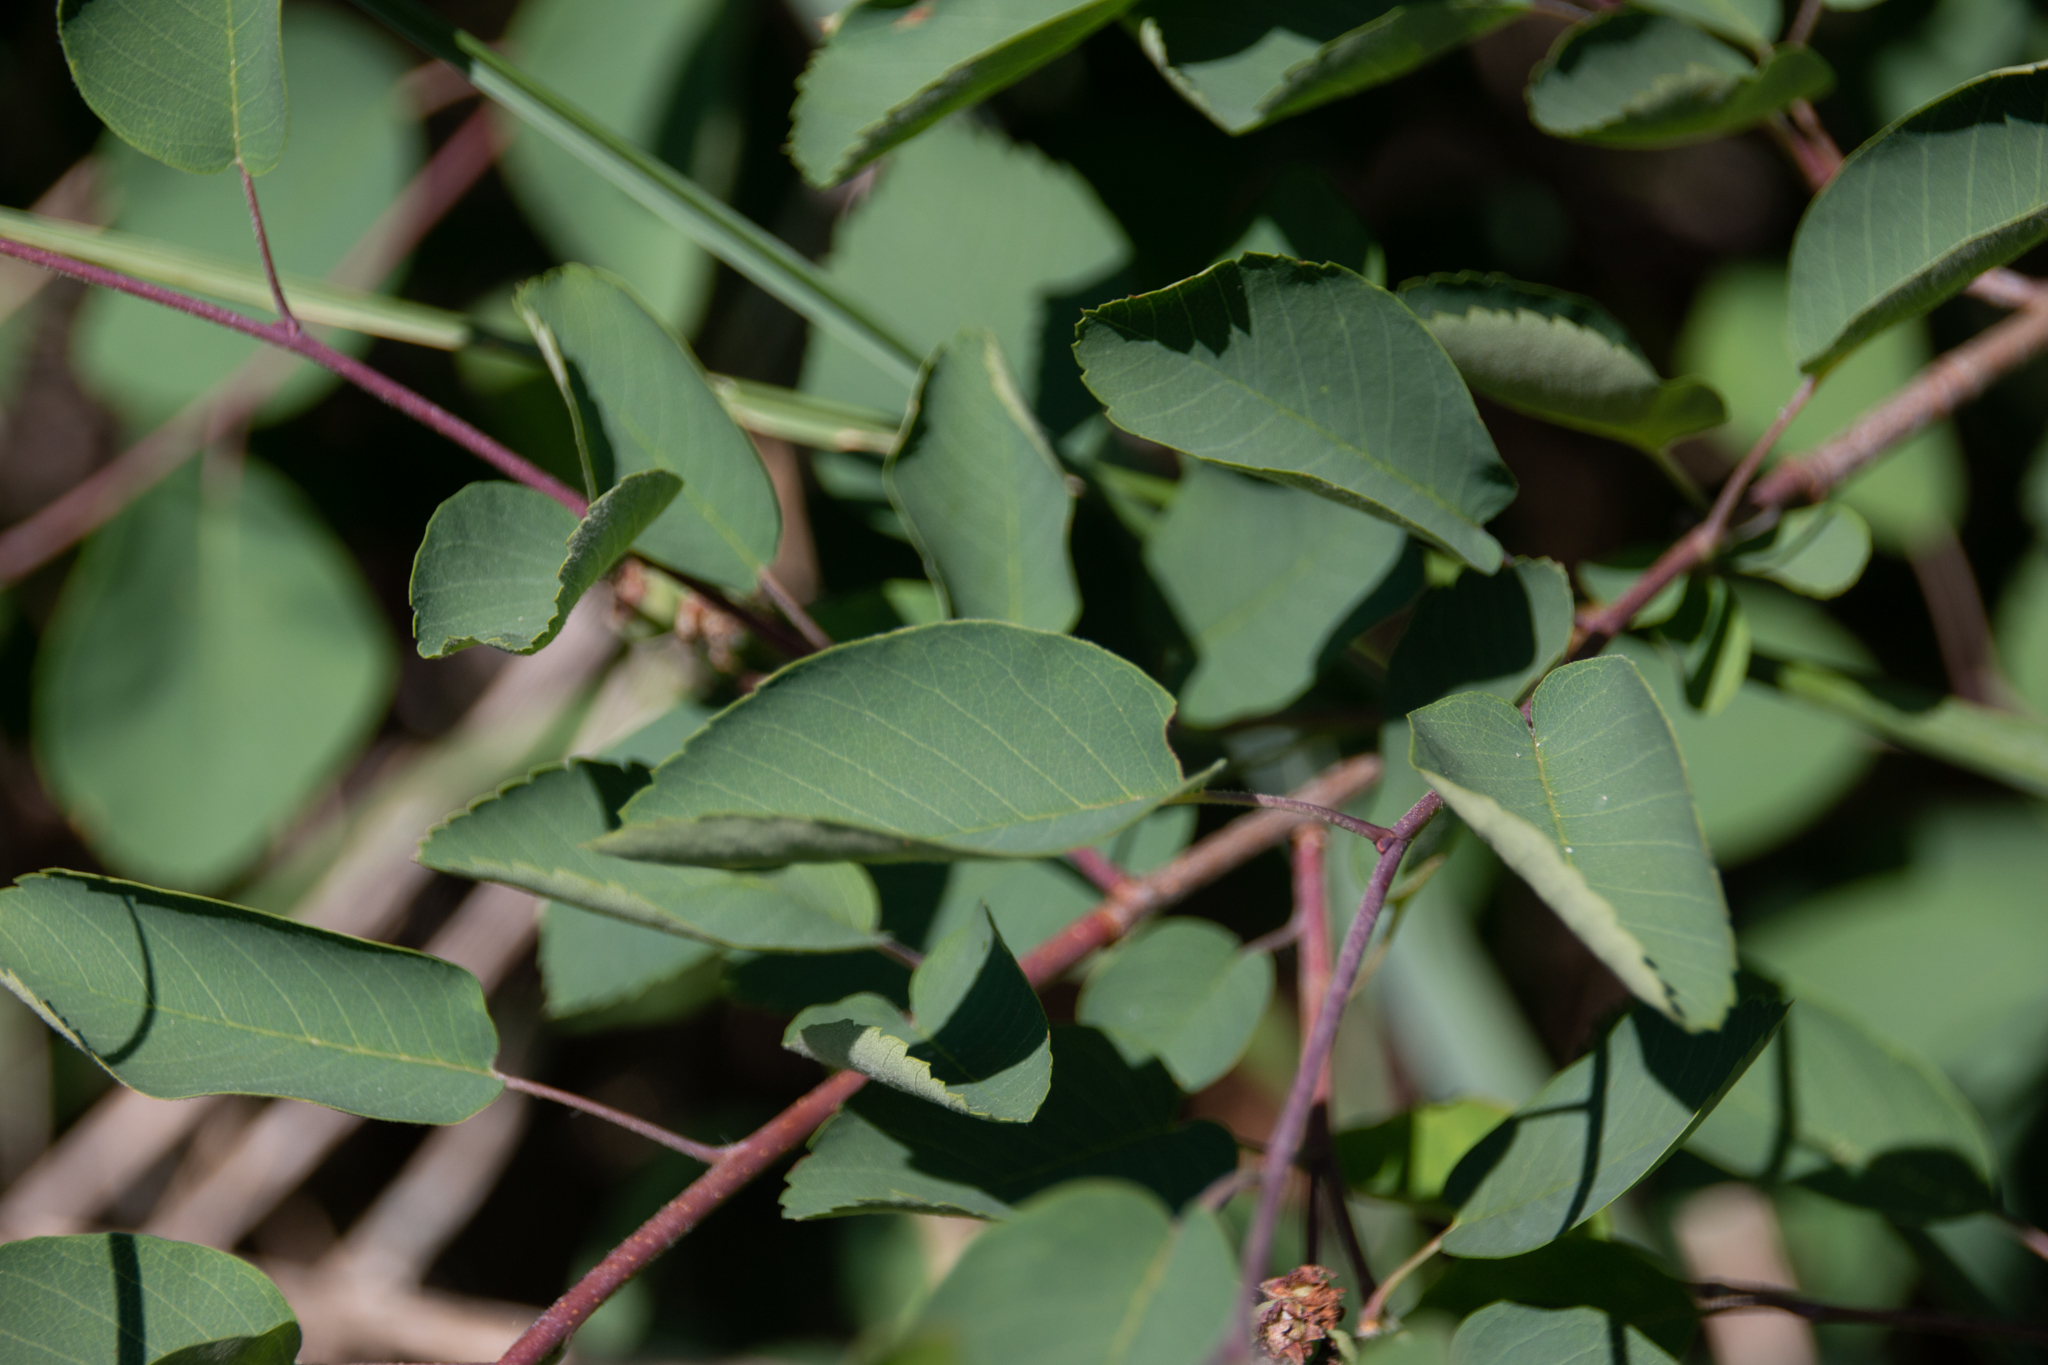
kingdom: Plantae
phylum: Tracheophyta
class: Magnoliopsida
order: Rosales
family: Rosaceae
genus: Amelanchier
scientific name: Amelanchier alnifolia
